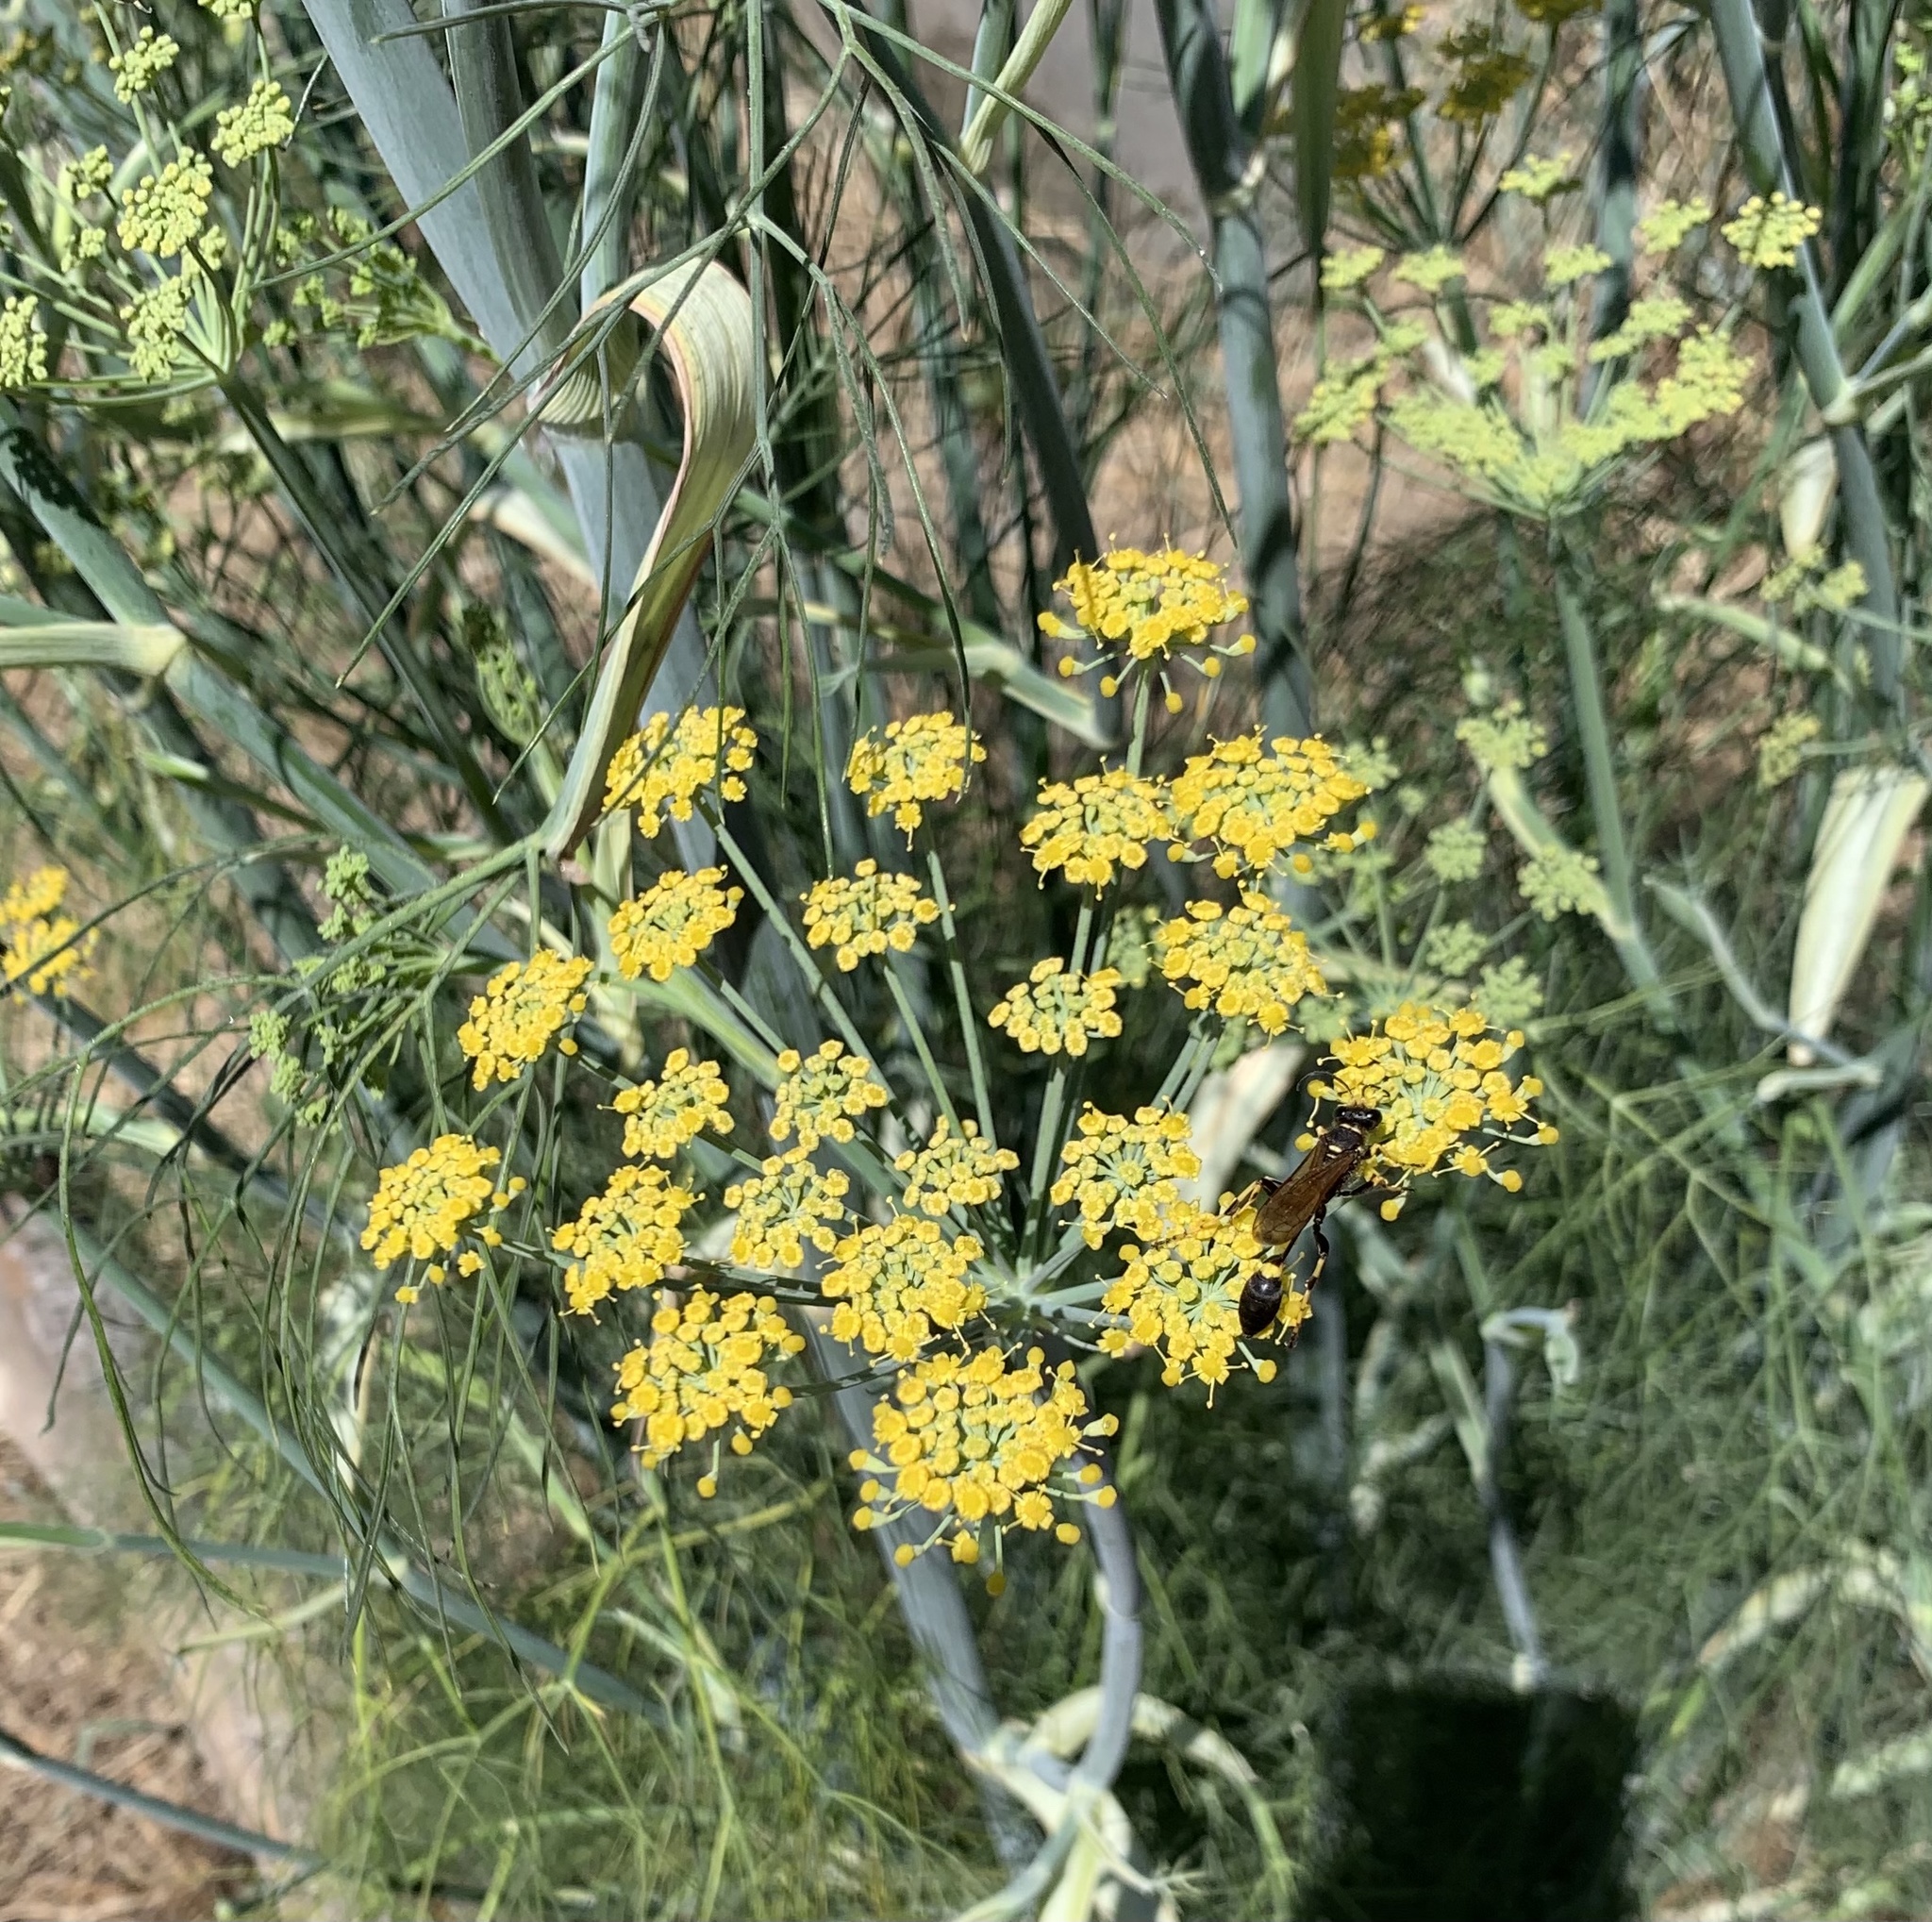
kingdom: Plantae
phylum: Tracheophyta
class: Magnoliopsida
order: Apiales
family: Apiaceae
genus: Foeniculum
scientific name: Foeniculum vulgare
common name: Fennel
